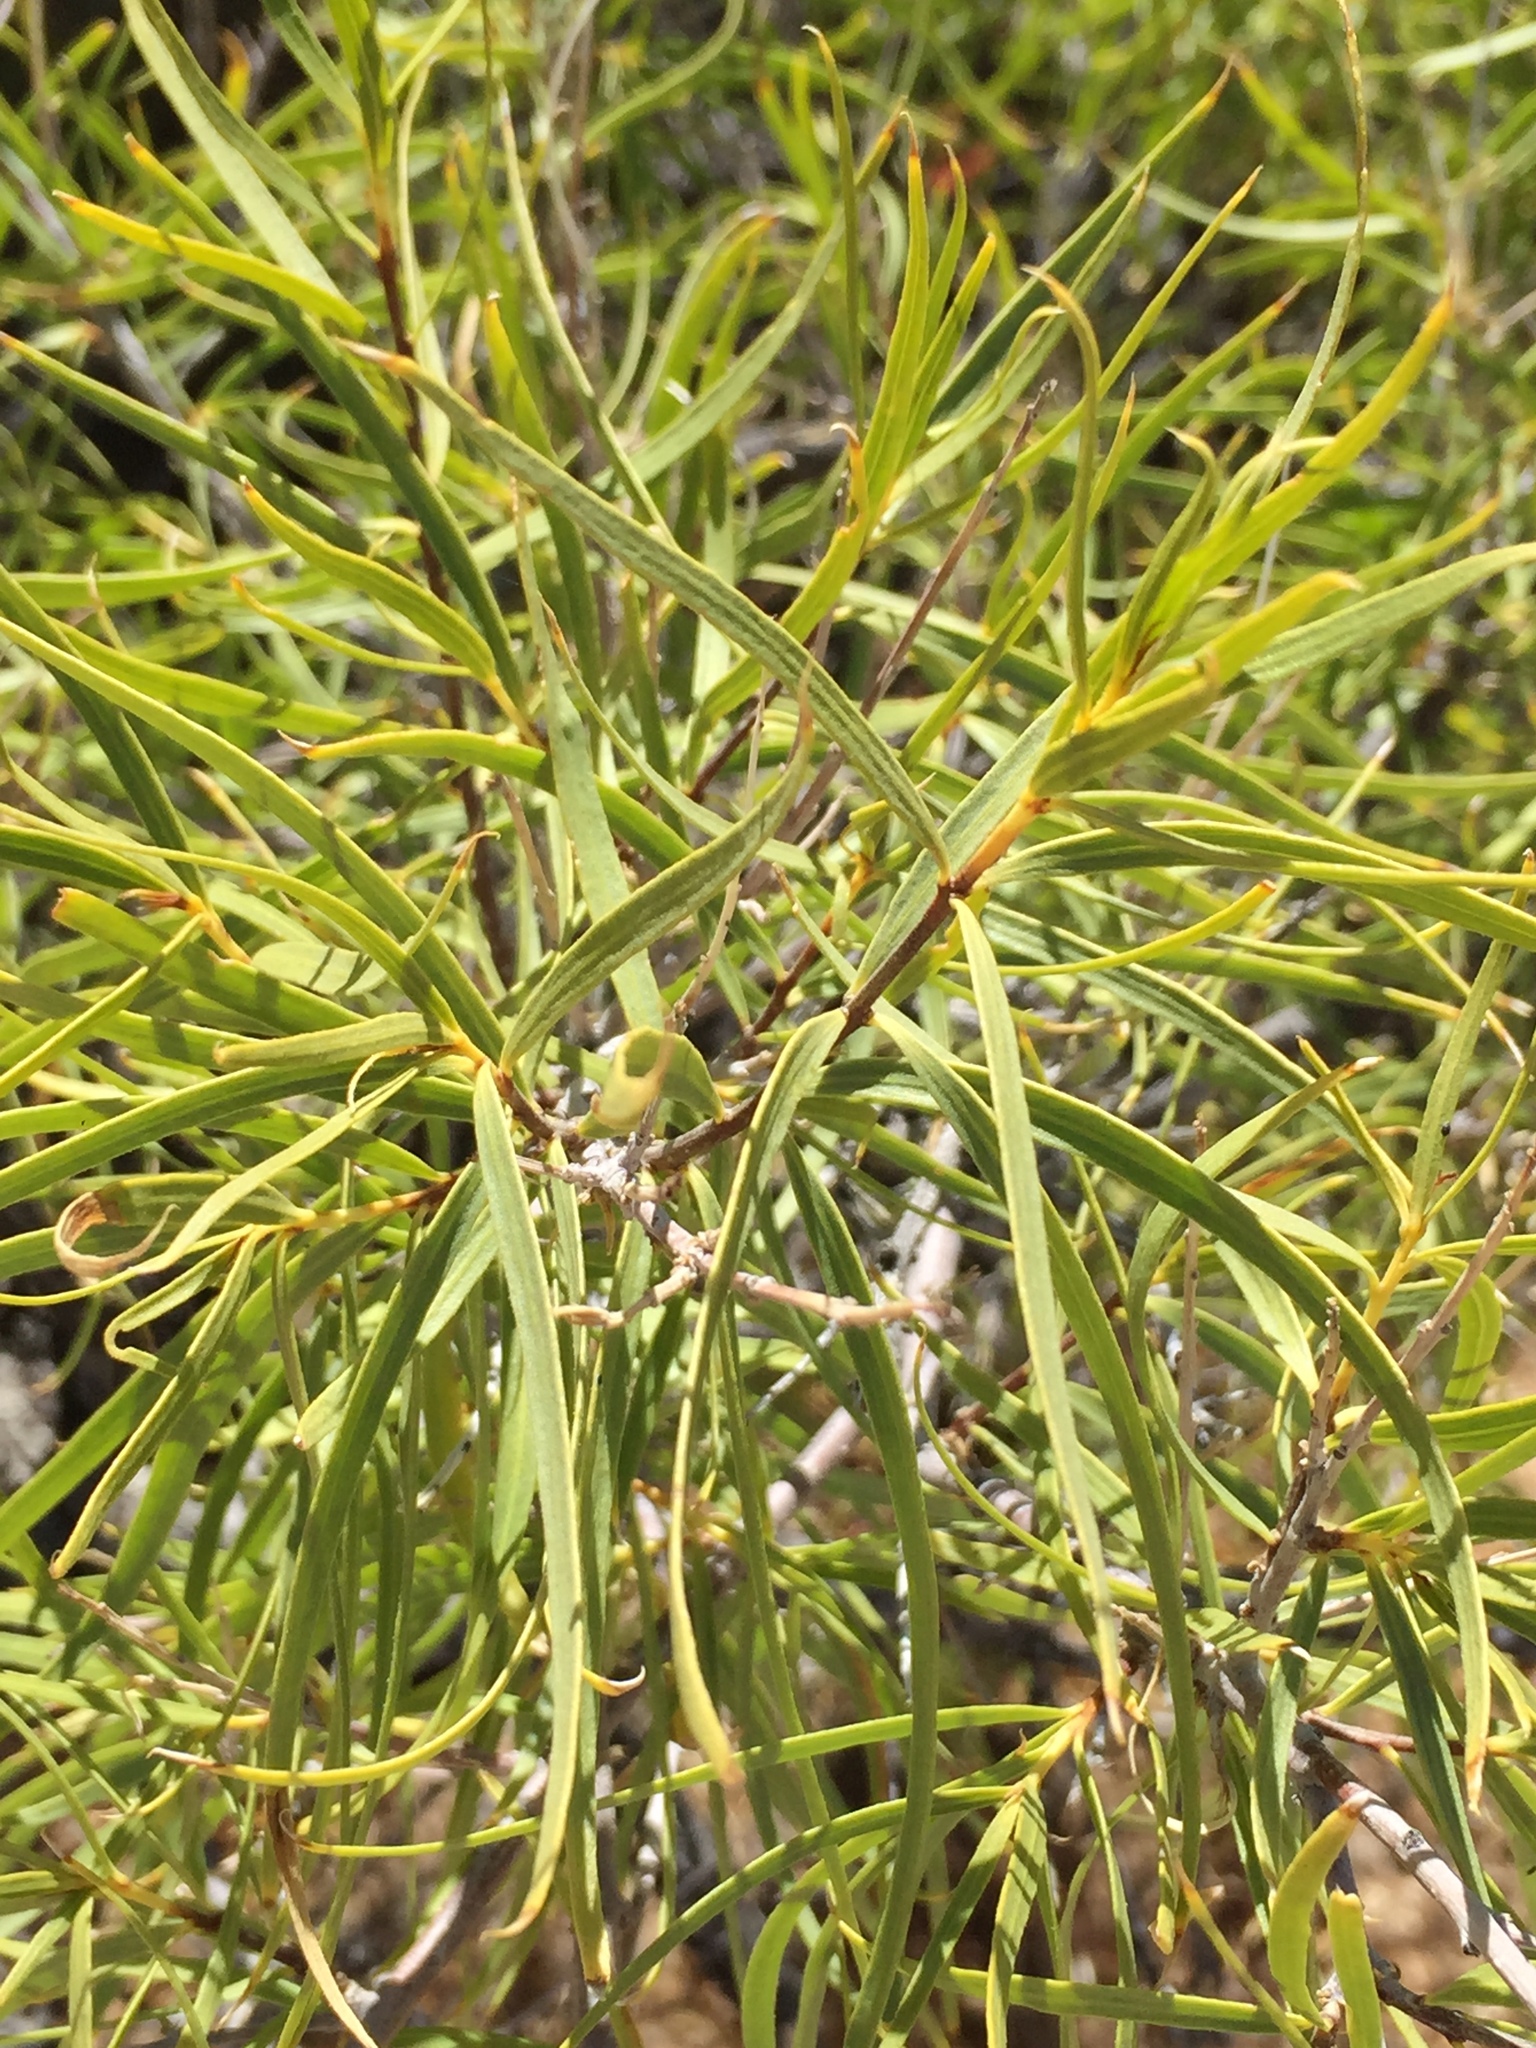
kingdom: Plantae
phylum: Tracheophyta
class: Magnoliopsida
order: Lamiales
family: Bignoniaceae
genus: Chilopsis
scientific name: Chilopsis linearis
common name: Desert-willow
